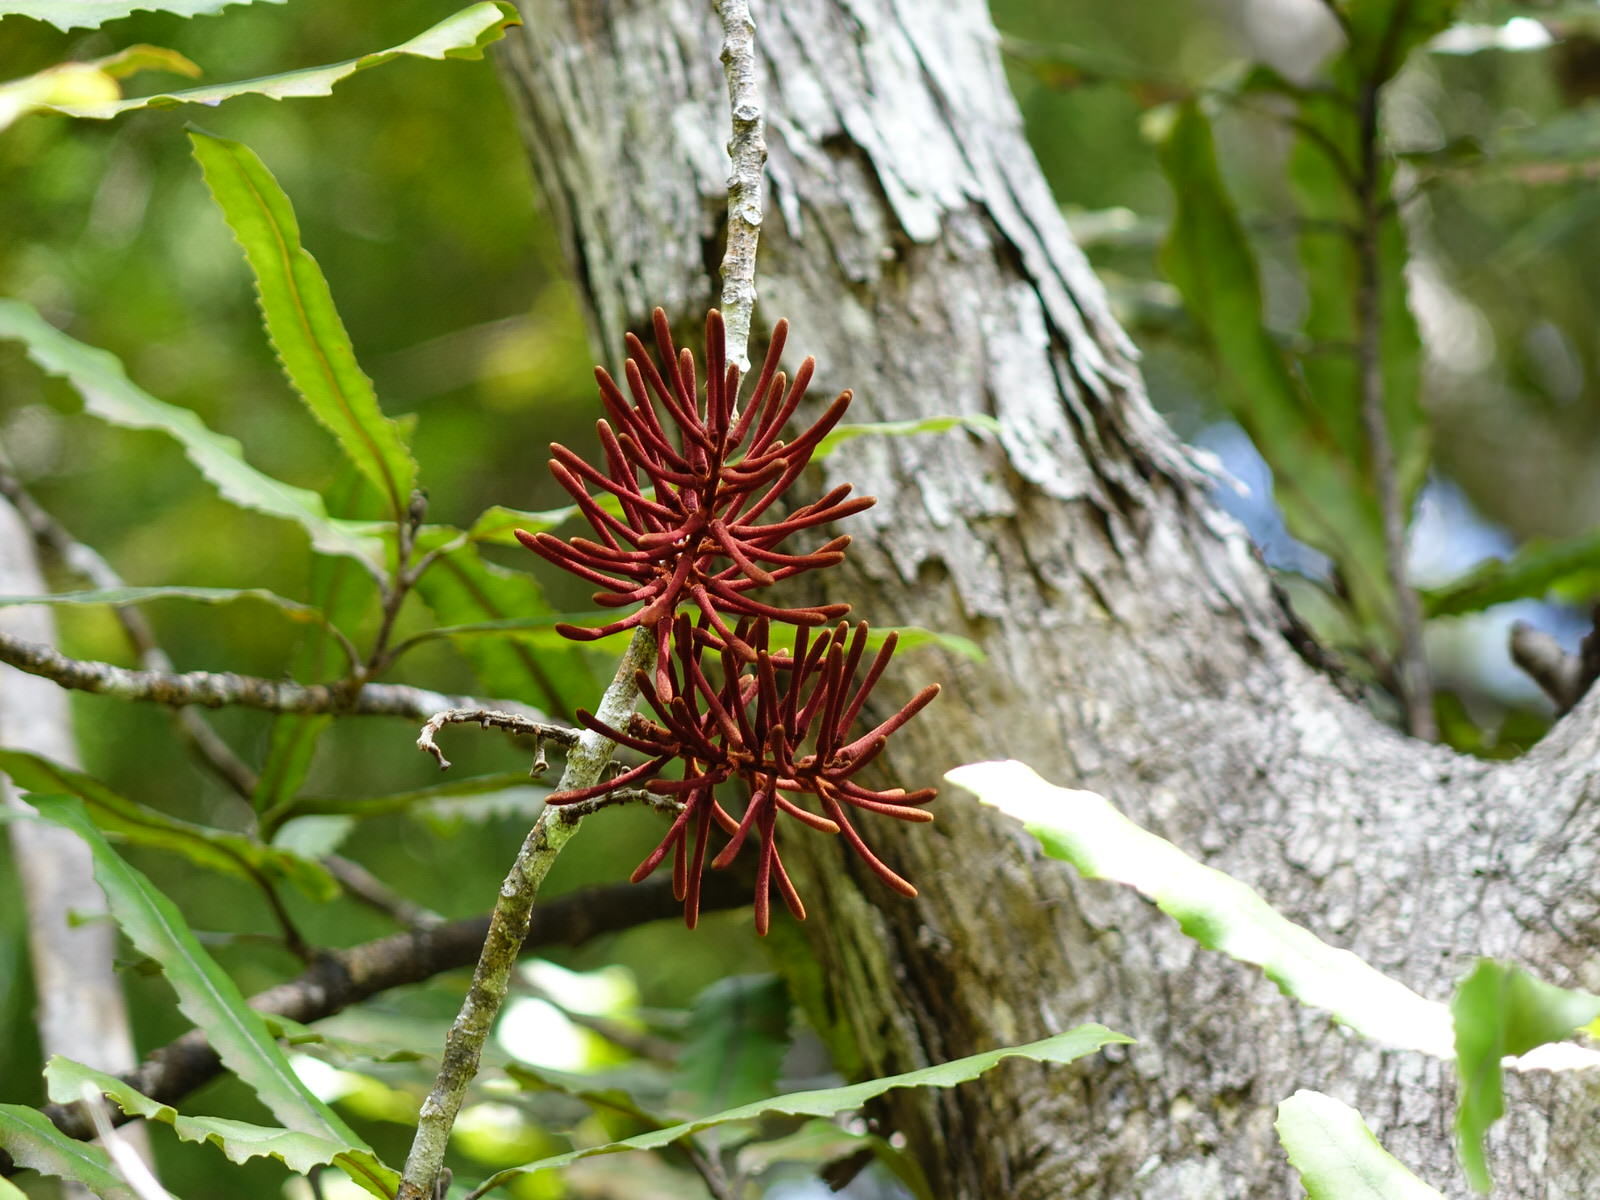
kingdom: Plantae
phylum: Tracheophyta
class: Magnoliopsida
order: Proteales
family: Proteaceae
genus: Knightia
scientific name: Knightia excelsa
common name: New zealand-honeysuckle
